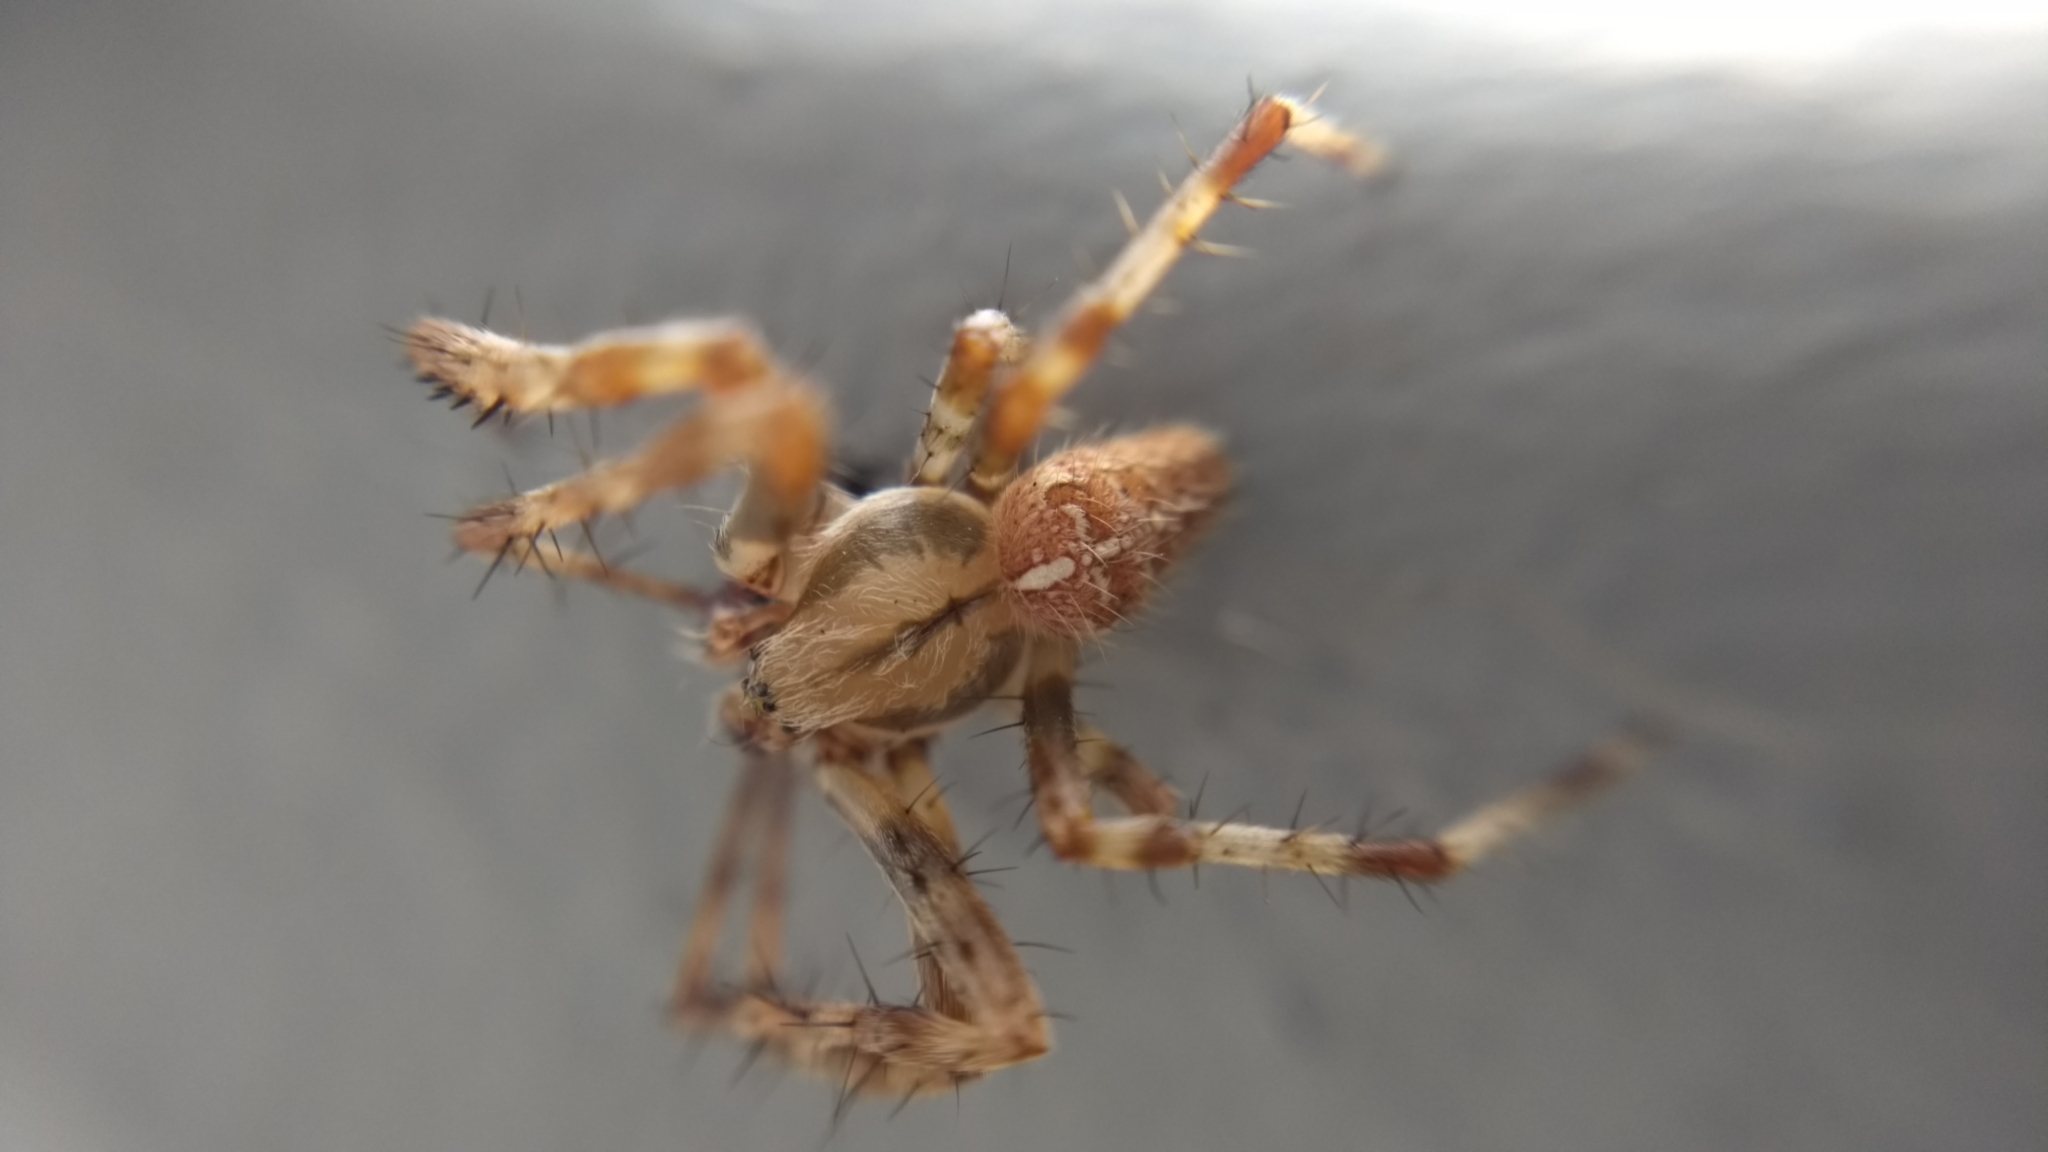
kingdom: Animalia
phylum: Arthropoda
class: Arachnida
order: Araneae
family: Araneidae
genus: Araneus
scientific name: Araneus diadematus
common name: Cross orbweaver
